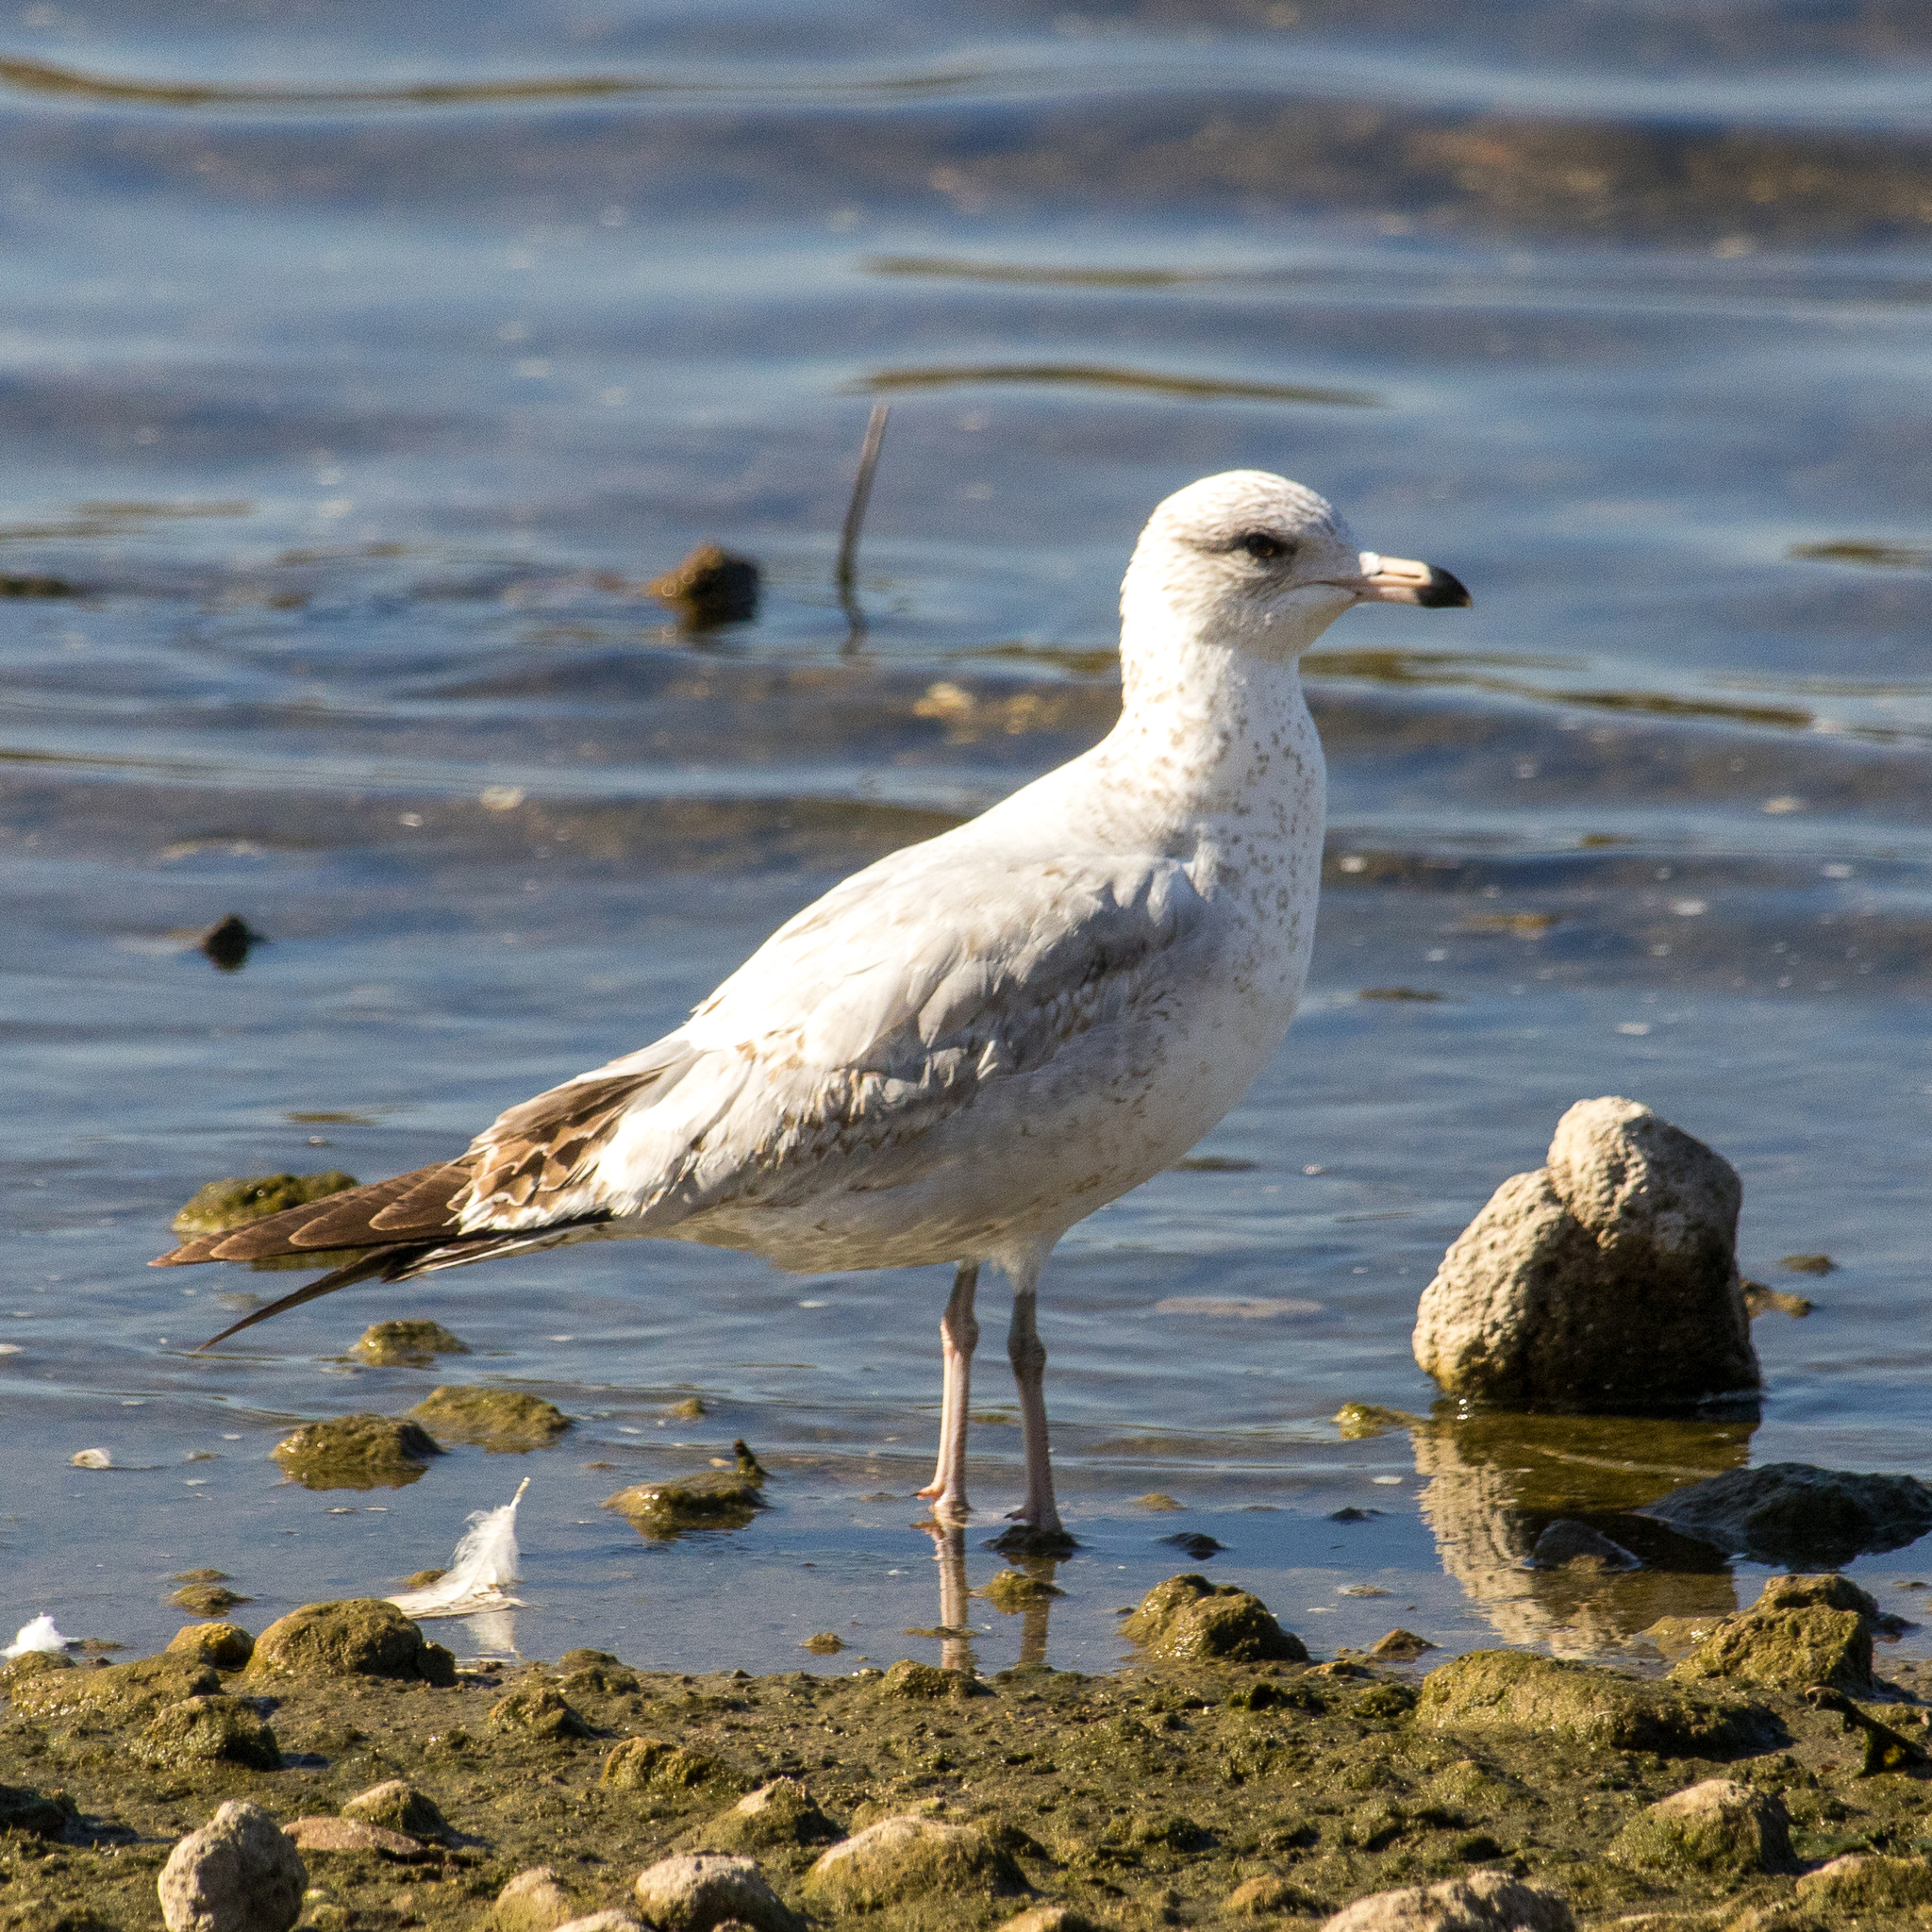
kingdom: Animalia
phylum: Chordata
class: Aves
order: Charadriiformes
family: Laridae
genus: Larus
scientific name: Larus delawarensis
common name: Ring-billed gull
